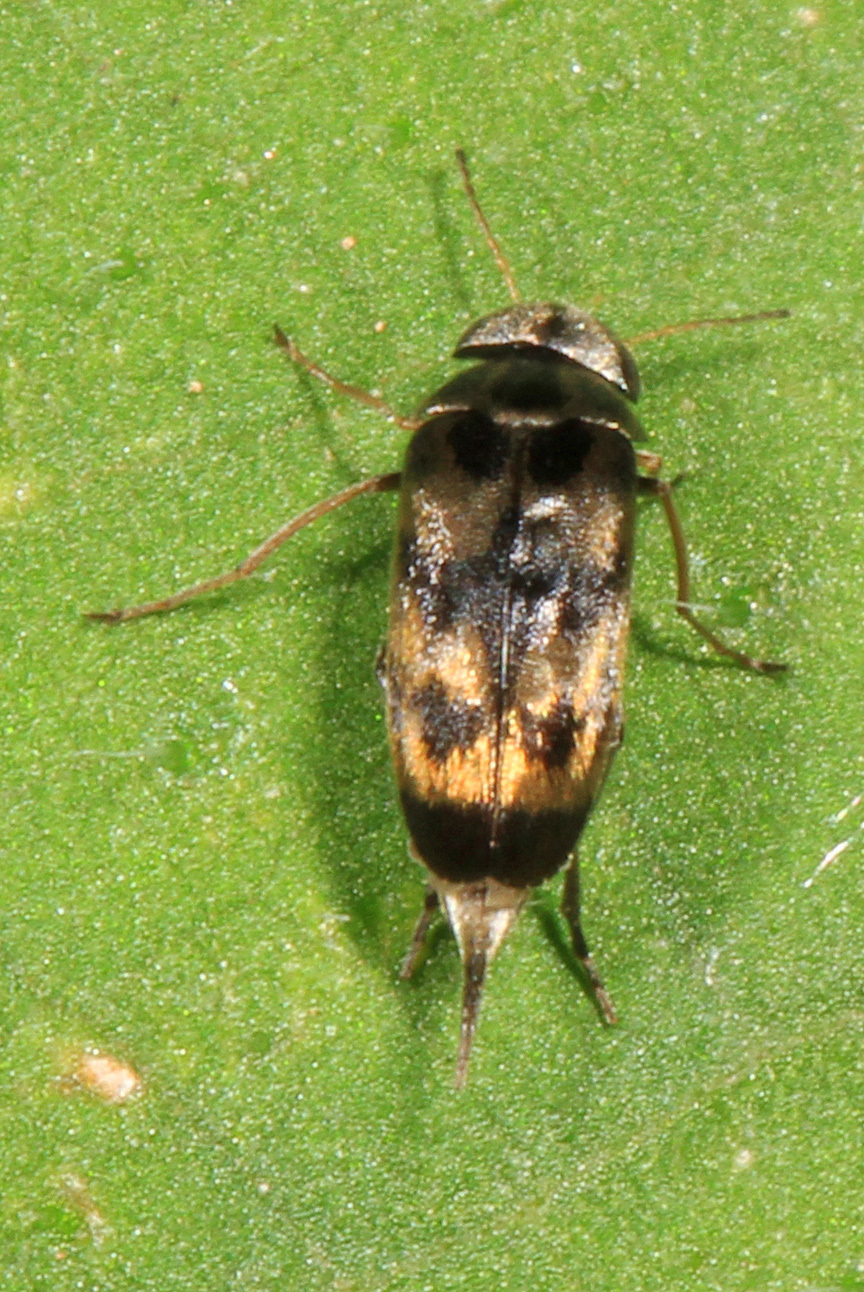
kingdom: Animalia
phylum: Arthropoda
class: Insecta
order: Coleoptera
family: Mordellidae
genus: Paramordellaria
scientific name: Paramordellaria triloba
